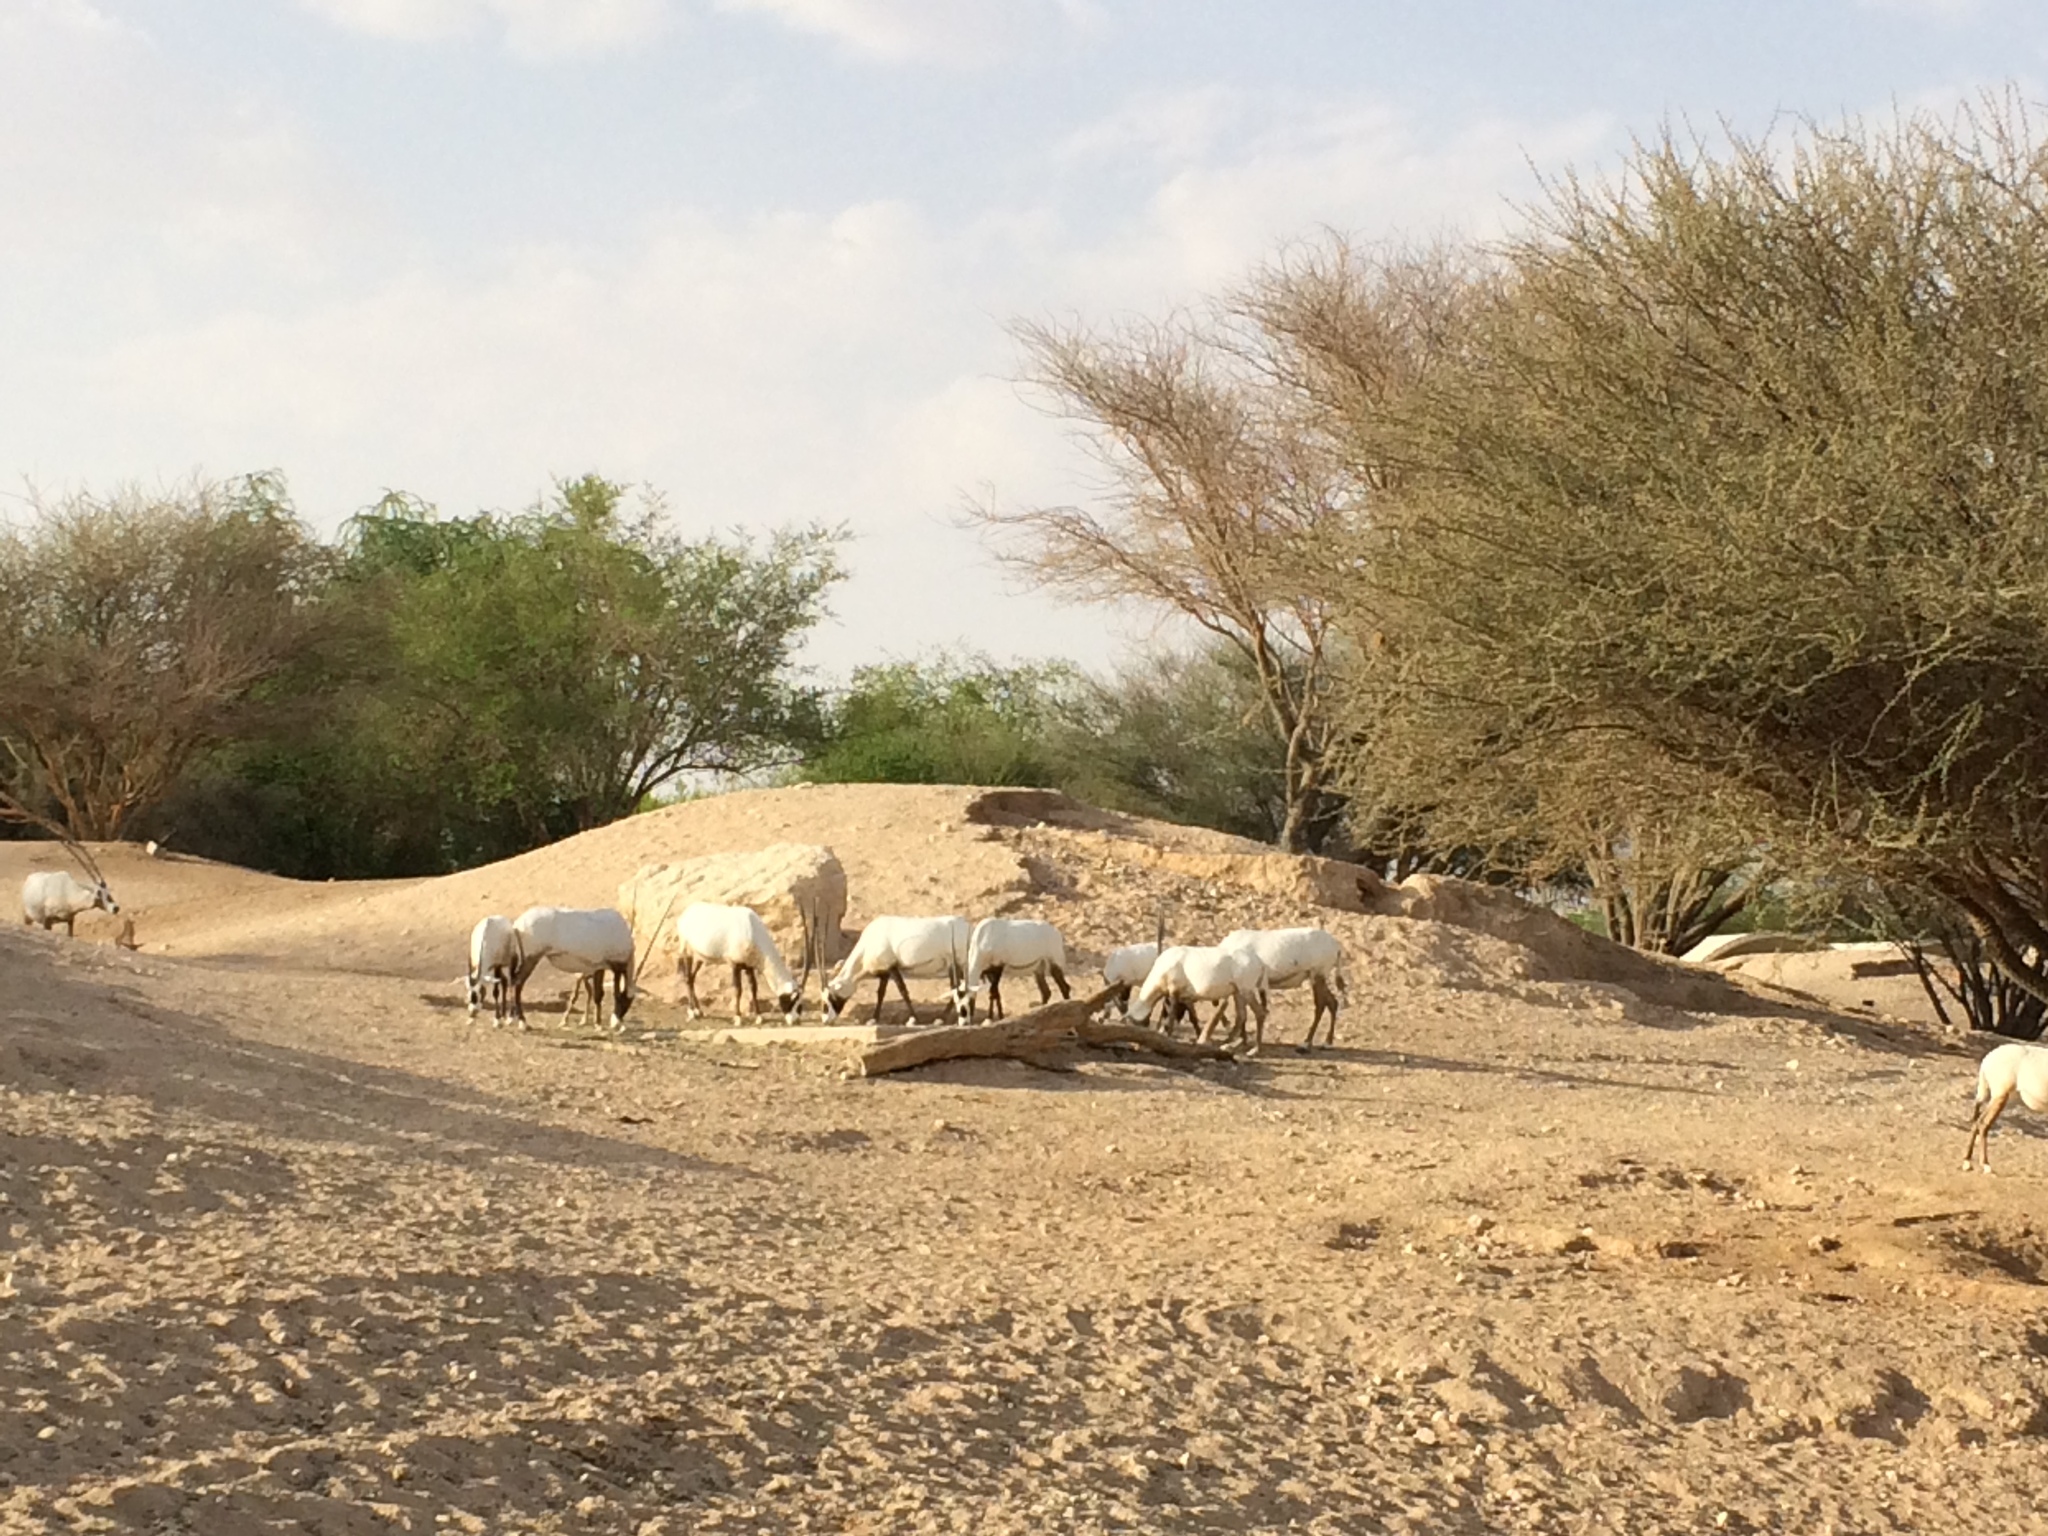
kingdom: Animalia
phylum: Chordata
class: Mammalia
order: Artiodactyla
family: Bovidae
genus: Oryx
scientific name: Oryx leucoryx
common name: Arabian oryx
